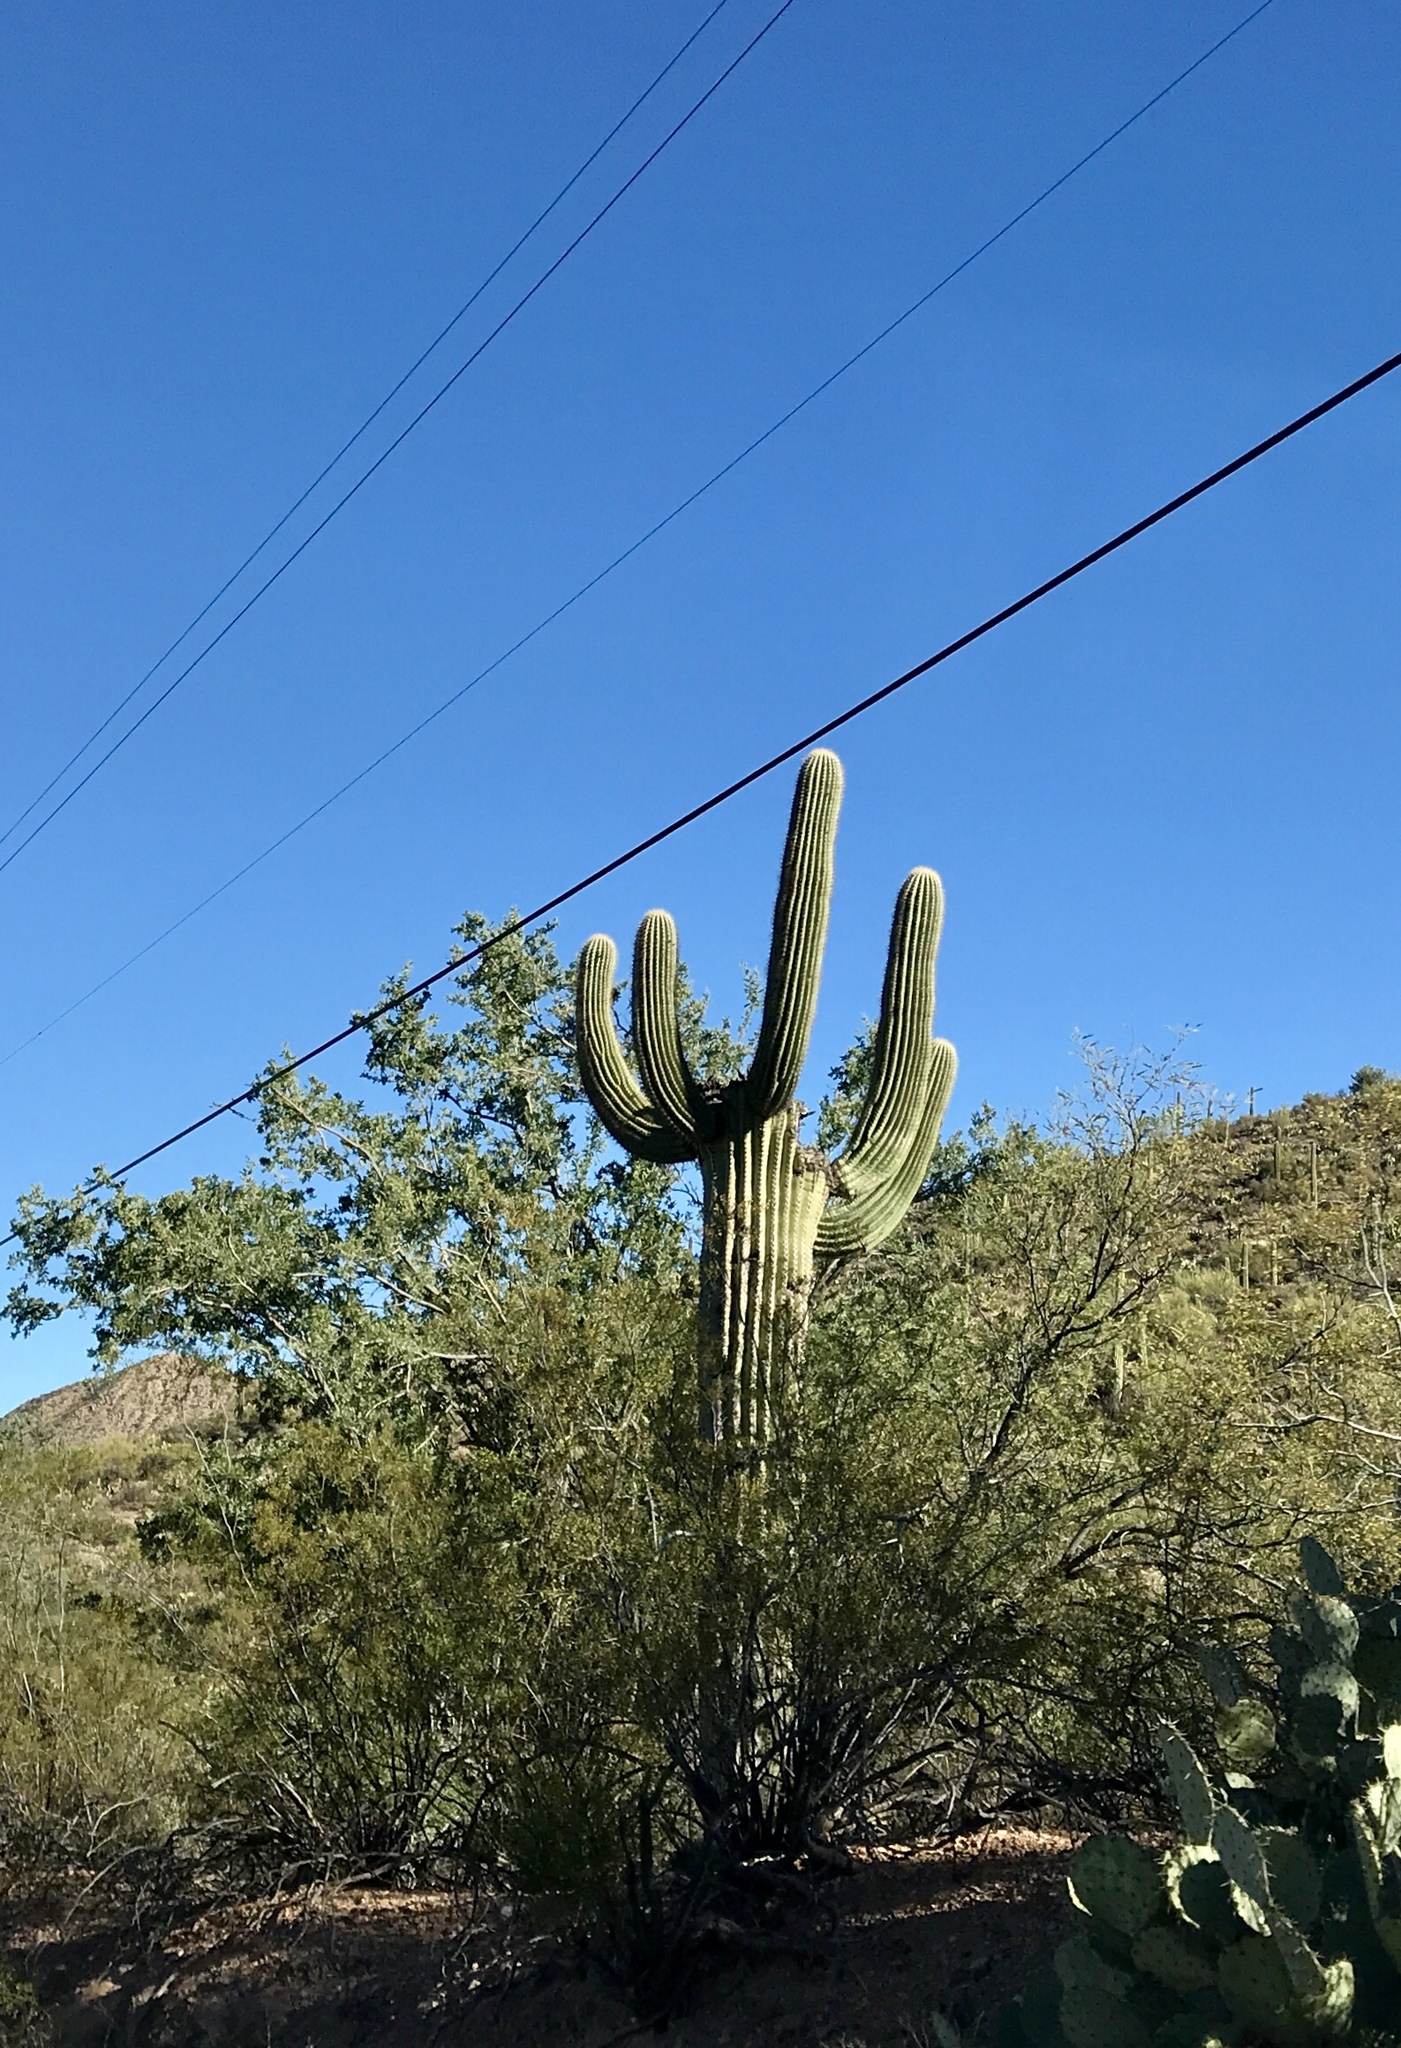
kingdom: Plantae
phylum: Tracheophyta
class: Magnoliopsida
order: Caryophyllales
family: Cactaceae
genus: Carnegiea
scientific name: Carnegiea gigantea
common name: Saguaro
